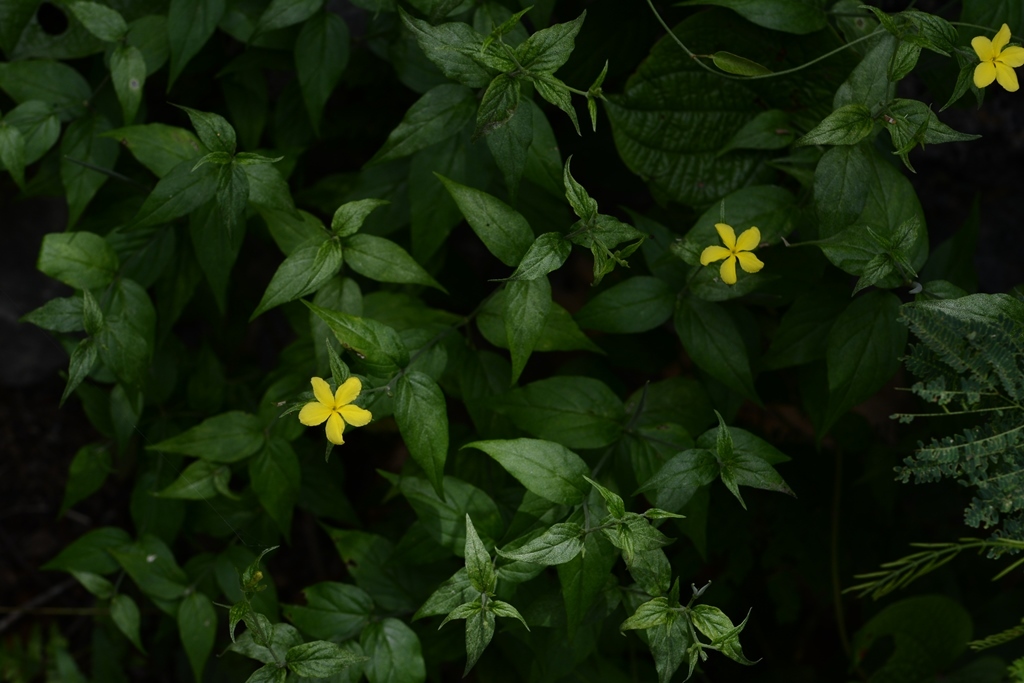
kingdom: Plantae
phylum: Tracheophyta
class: Magnoliopsida
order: Gentianales
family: Apocynaceae
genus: Haplophyton
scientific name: Haplophyton cimicidum
